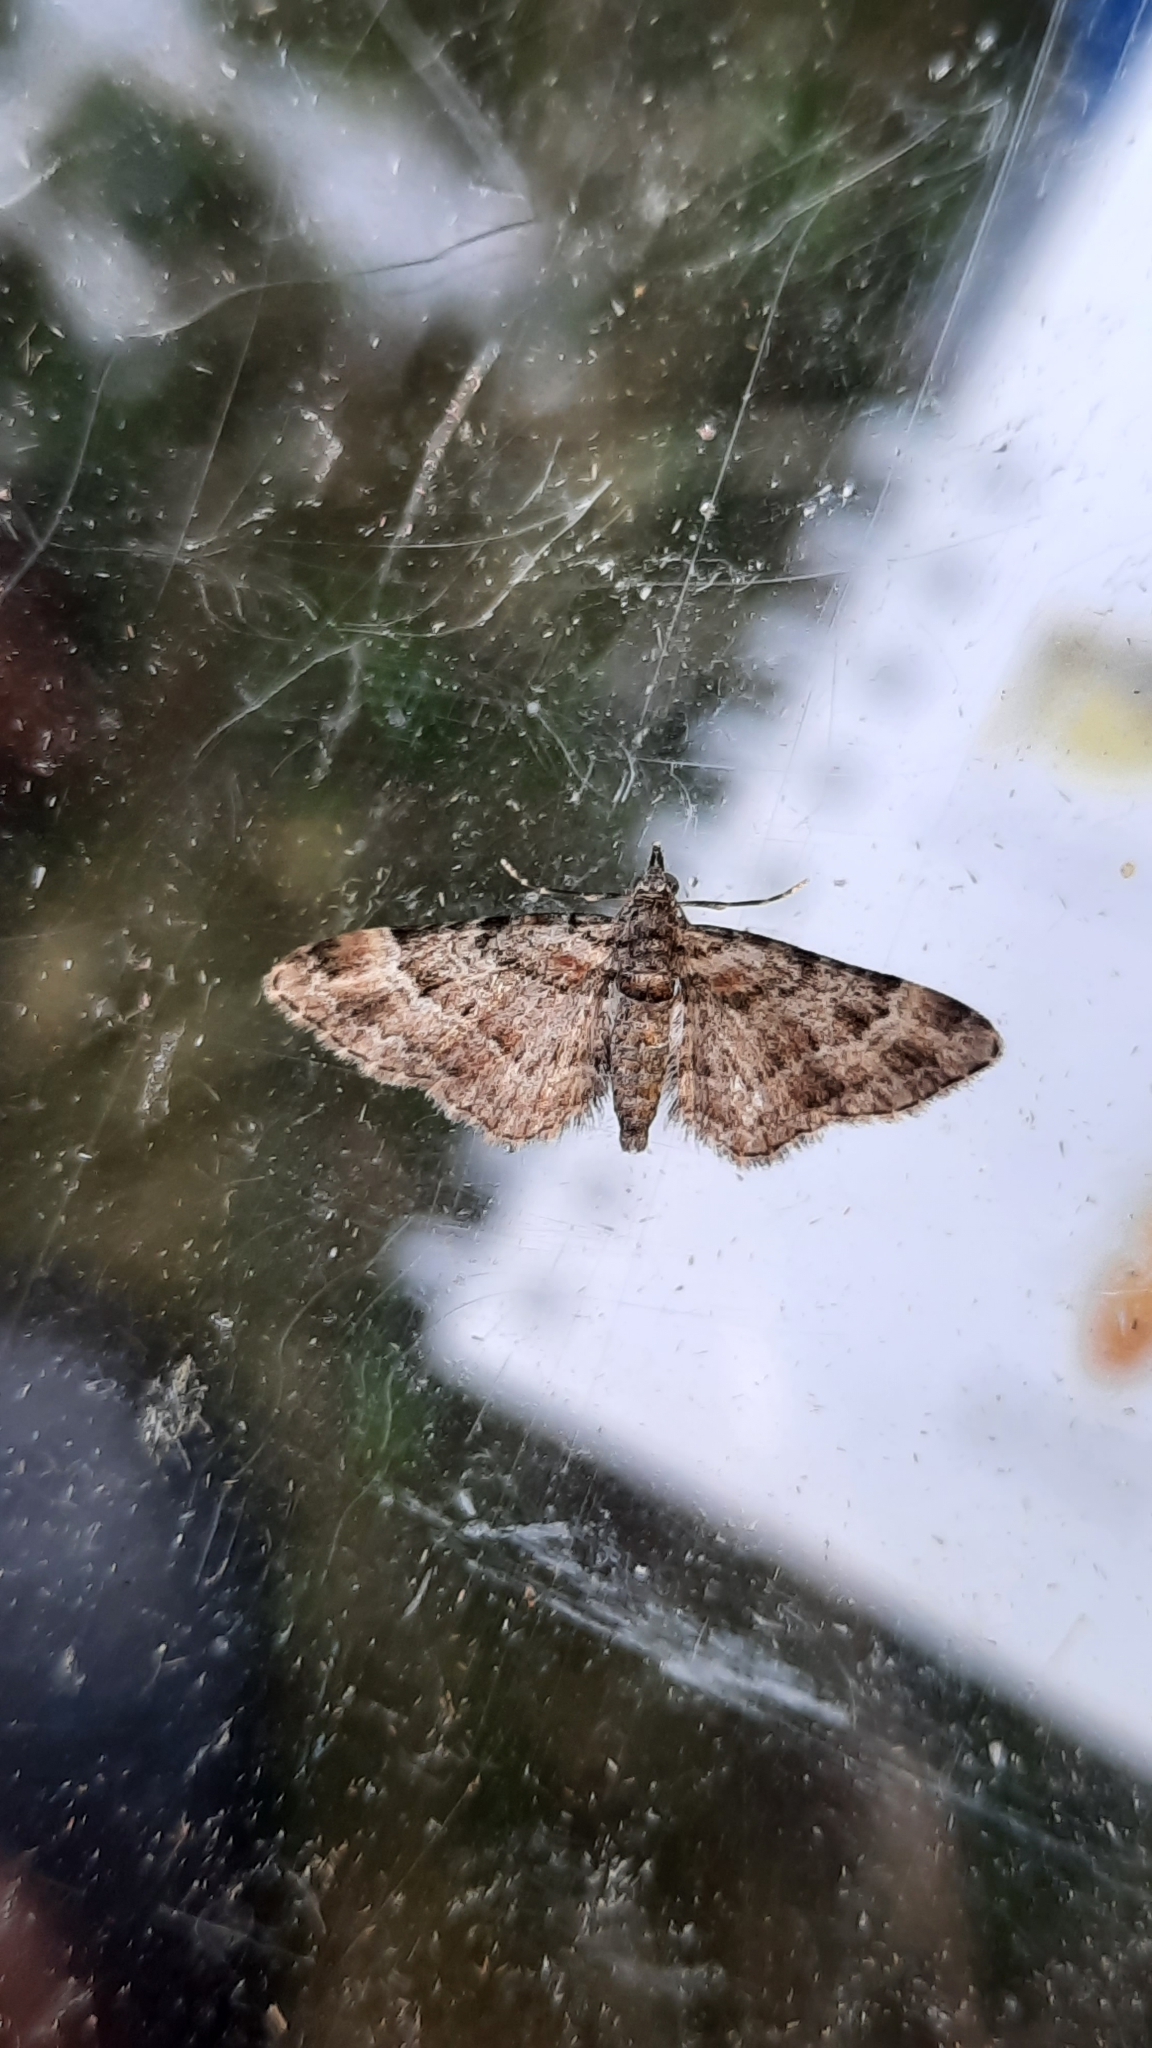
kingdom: Animalia
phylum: Arthropoda
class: Insecta
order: Lepidoptera
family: Geometridae
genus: Gymnoscelis
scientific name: Gymnoscelis rufifasciata
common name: Double-striped pug
